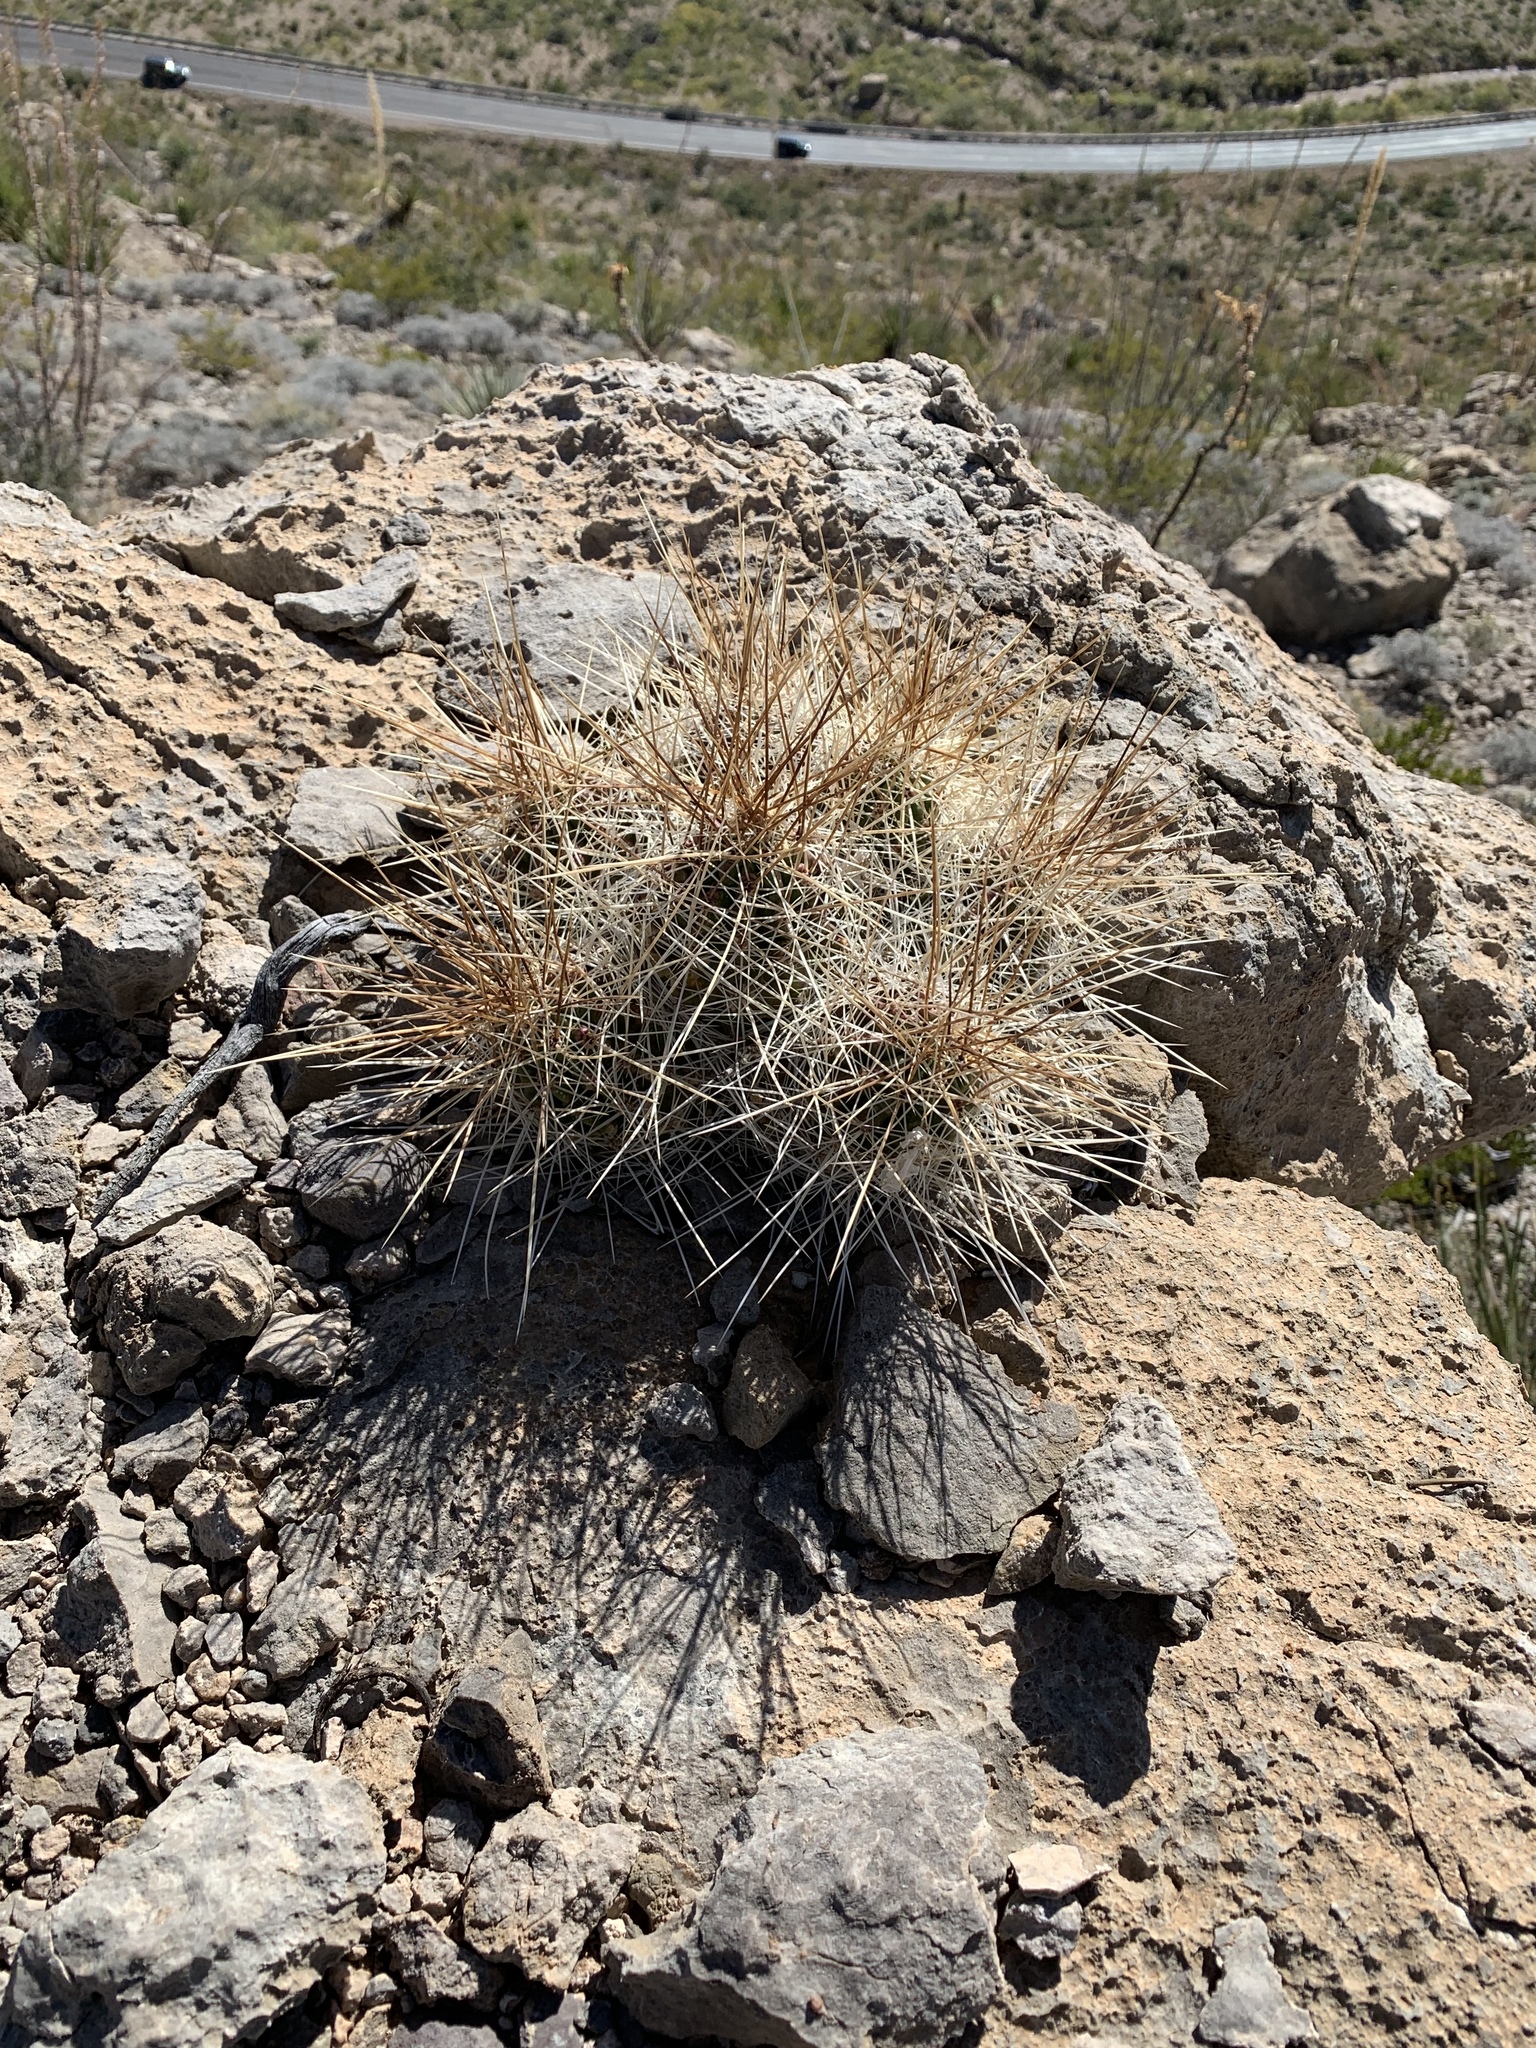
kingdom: Plantae
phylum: Tracheophyta
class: Magnoliopsida
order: Caryophyllales
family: Cactaceae
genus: Echinocereus
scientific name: Echinocereus stramineus
